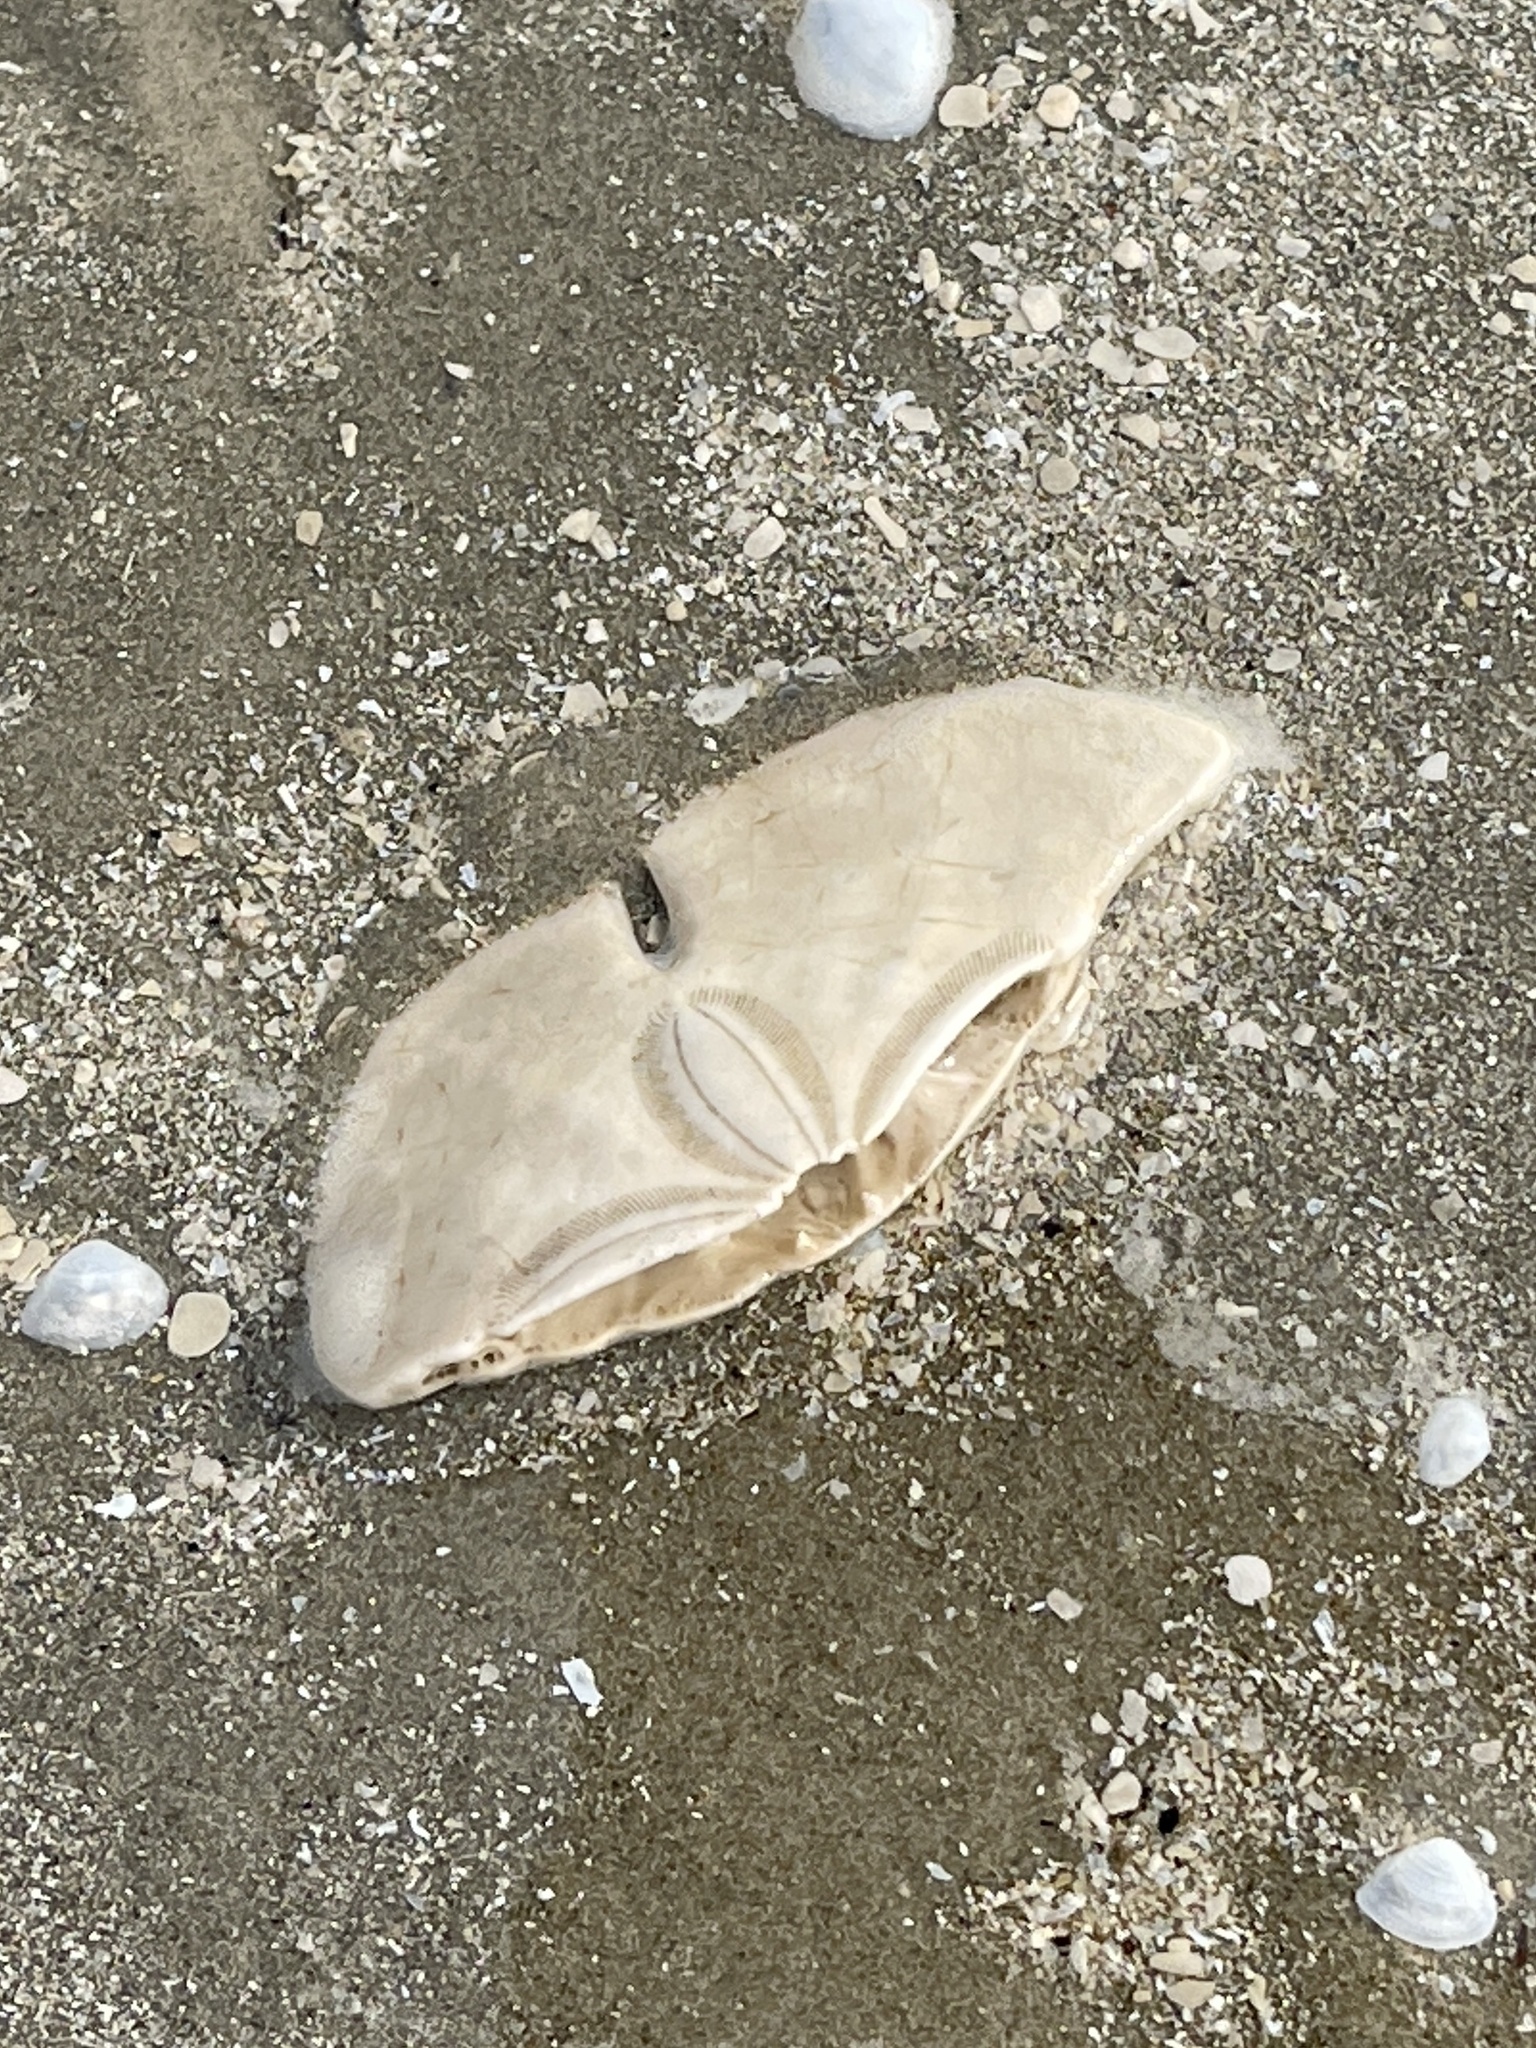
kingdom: Animalia
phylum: Echinodermata
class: Echinoidea
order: Echinolampadacea
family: Mellitidae
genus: Mellita
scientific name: Mellita quinquiesperforata
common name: Sand dollar
